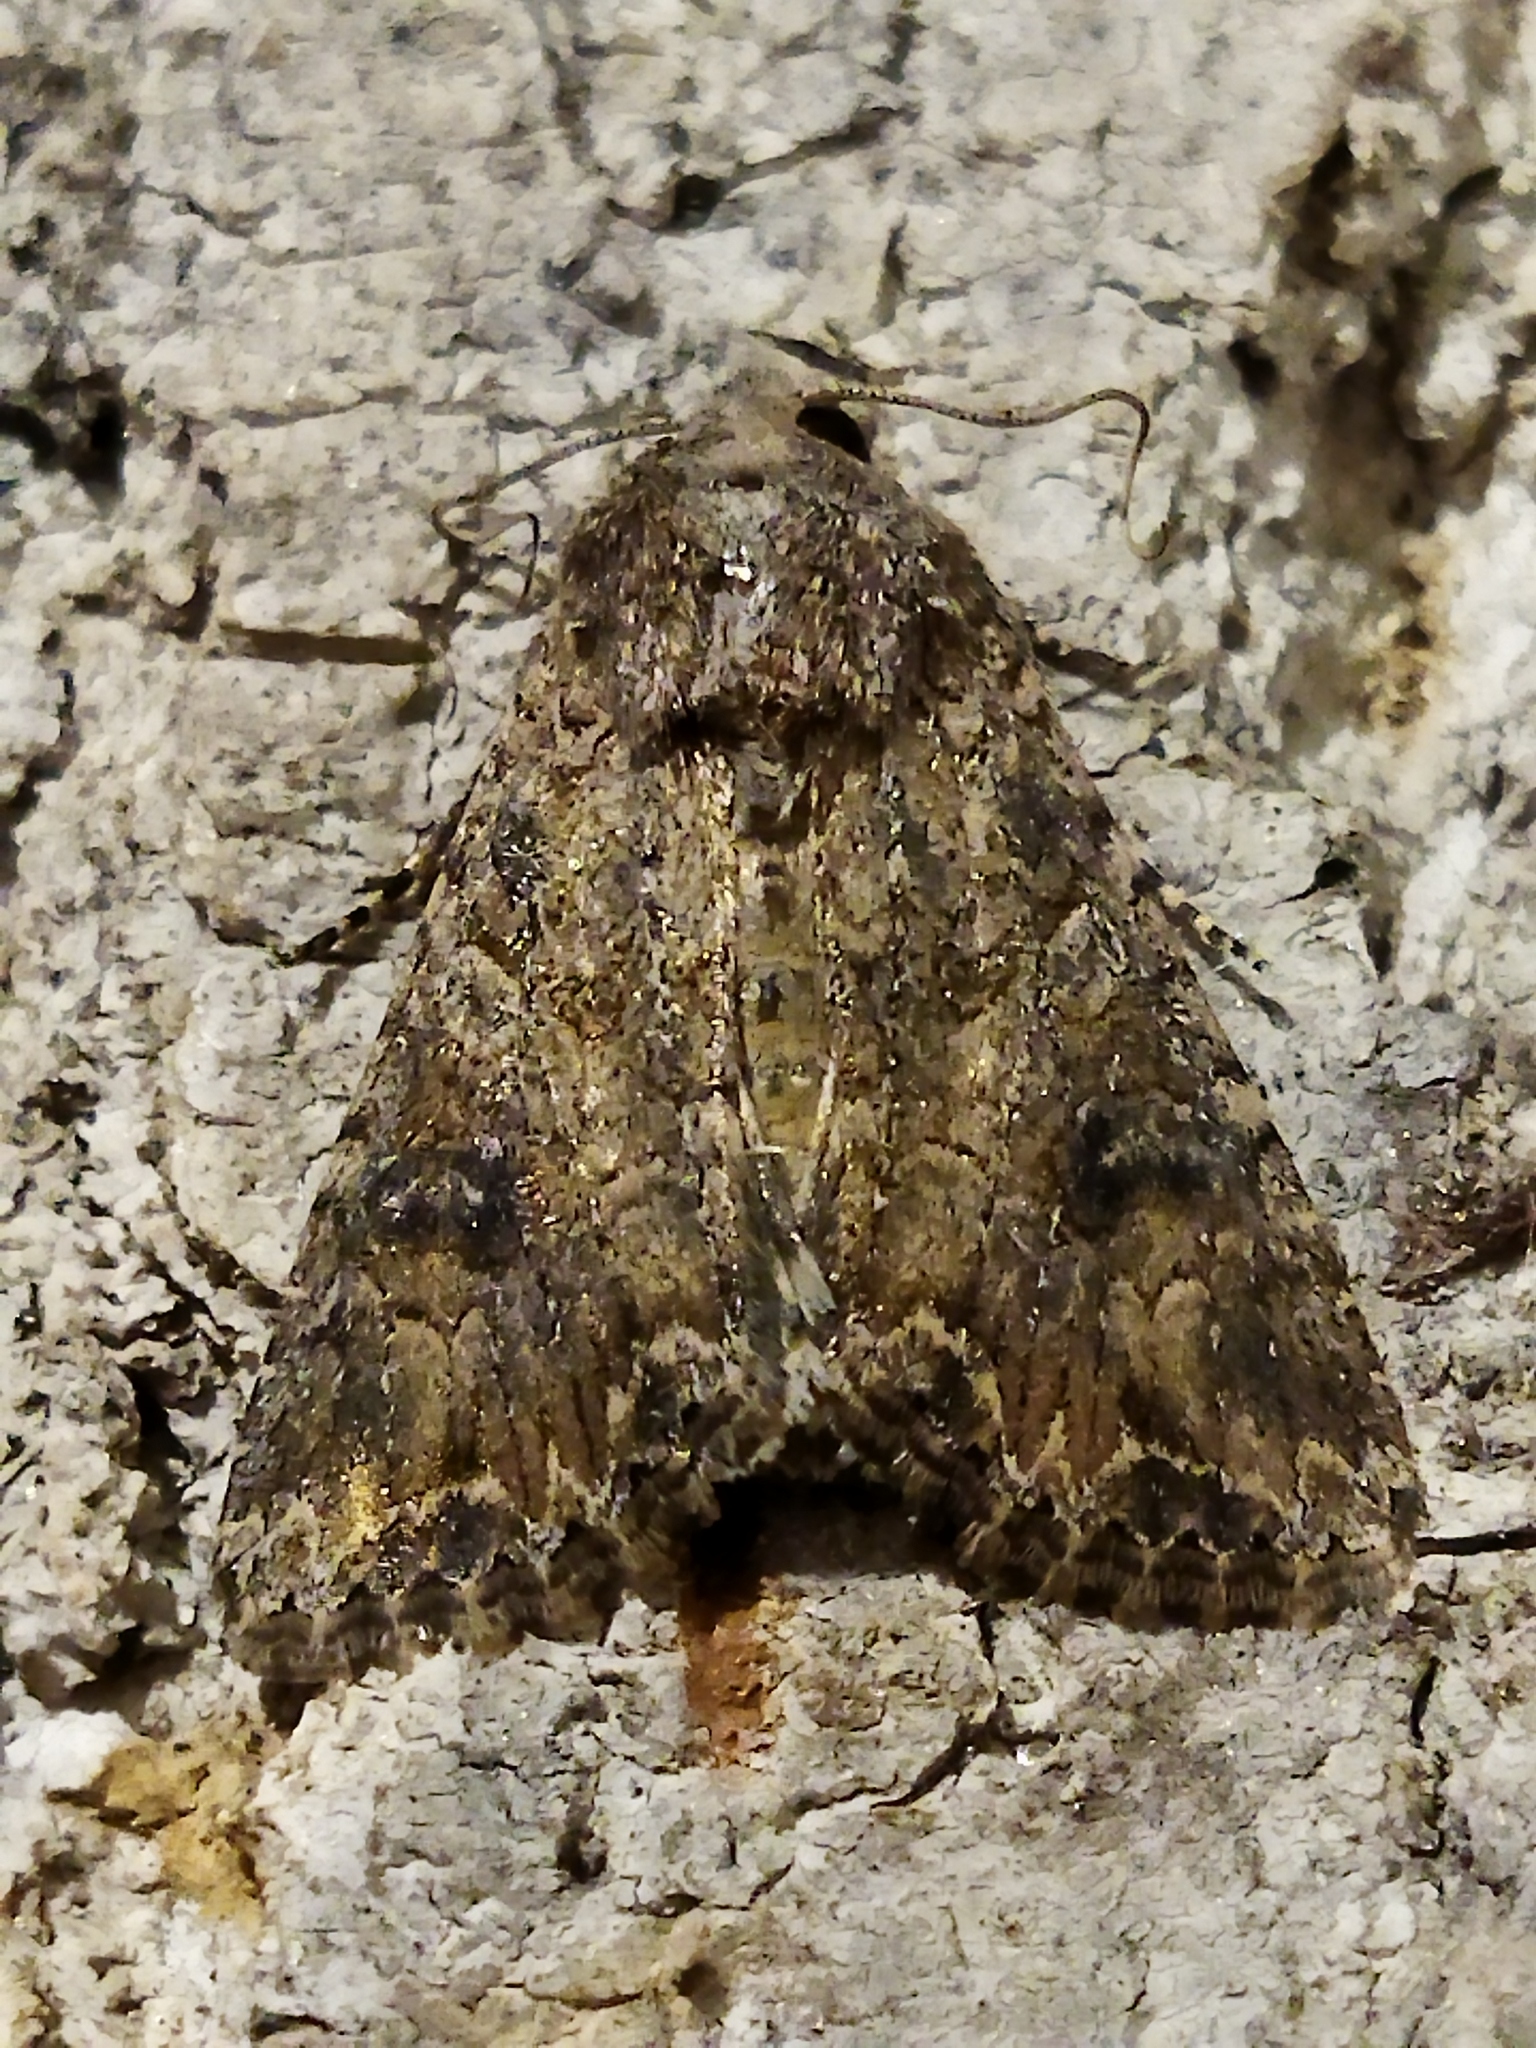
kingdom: Animalia
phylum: Arthropoda
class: Insecta
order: Lepidoptera
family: Noctuidae
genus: Anarta
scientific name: Anarta trifolii
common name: Clover cutworm moth
